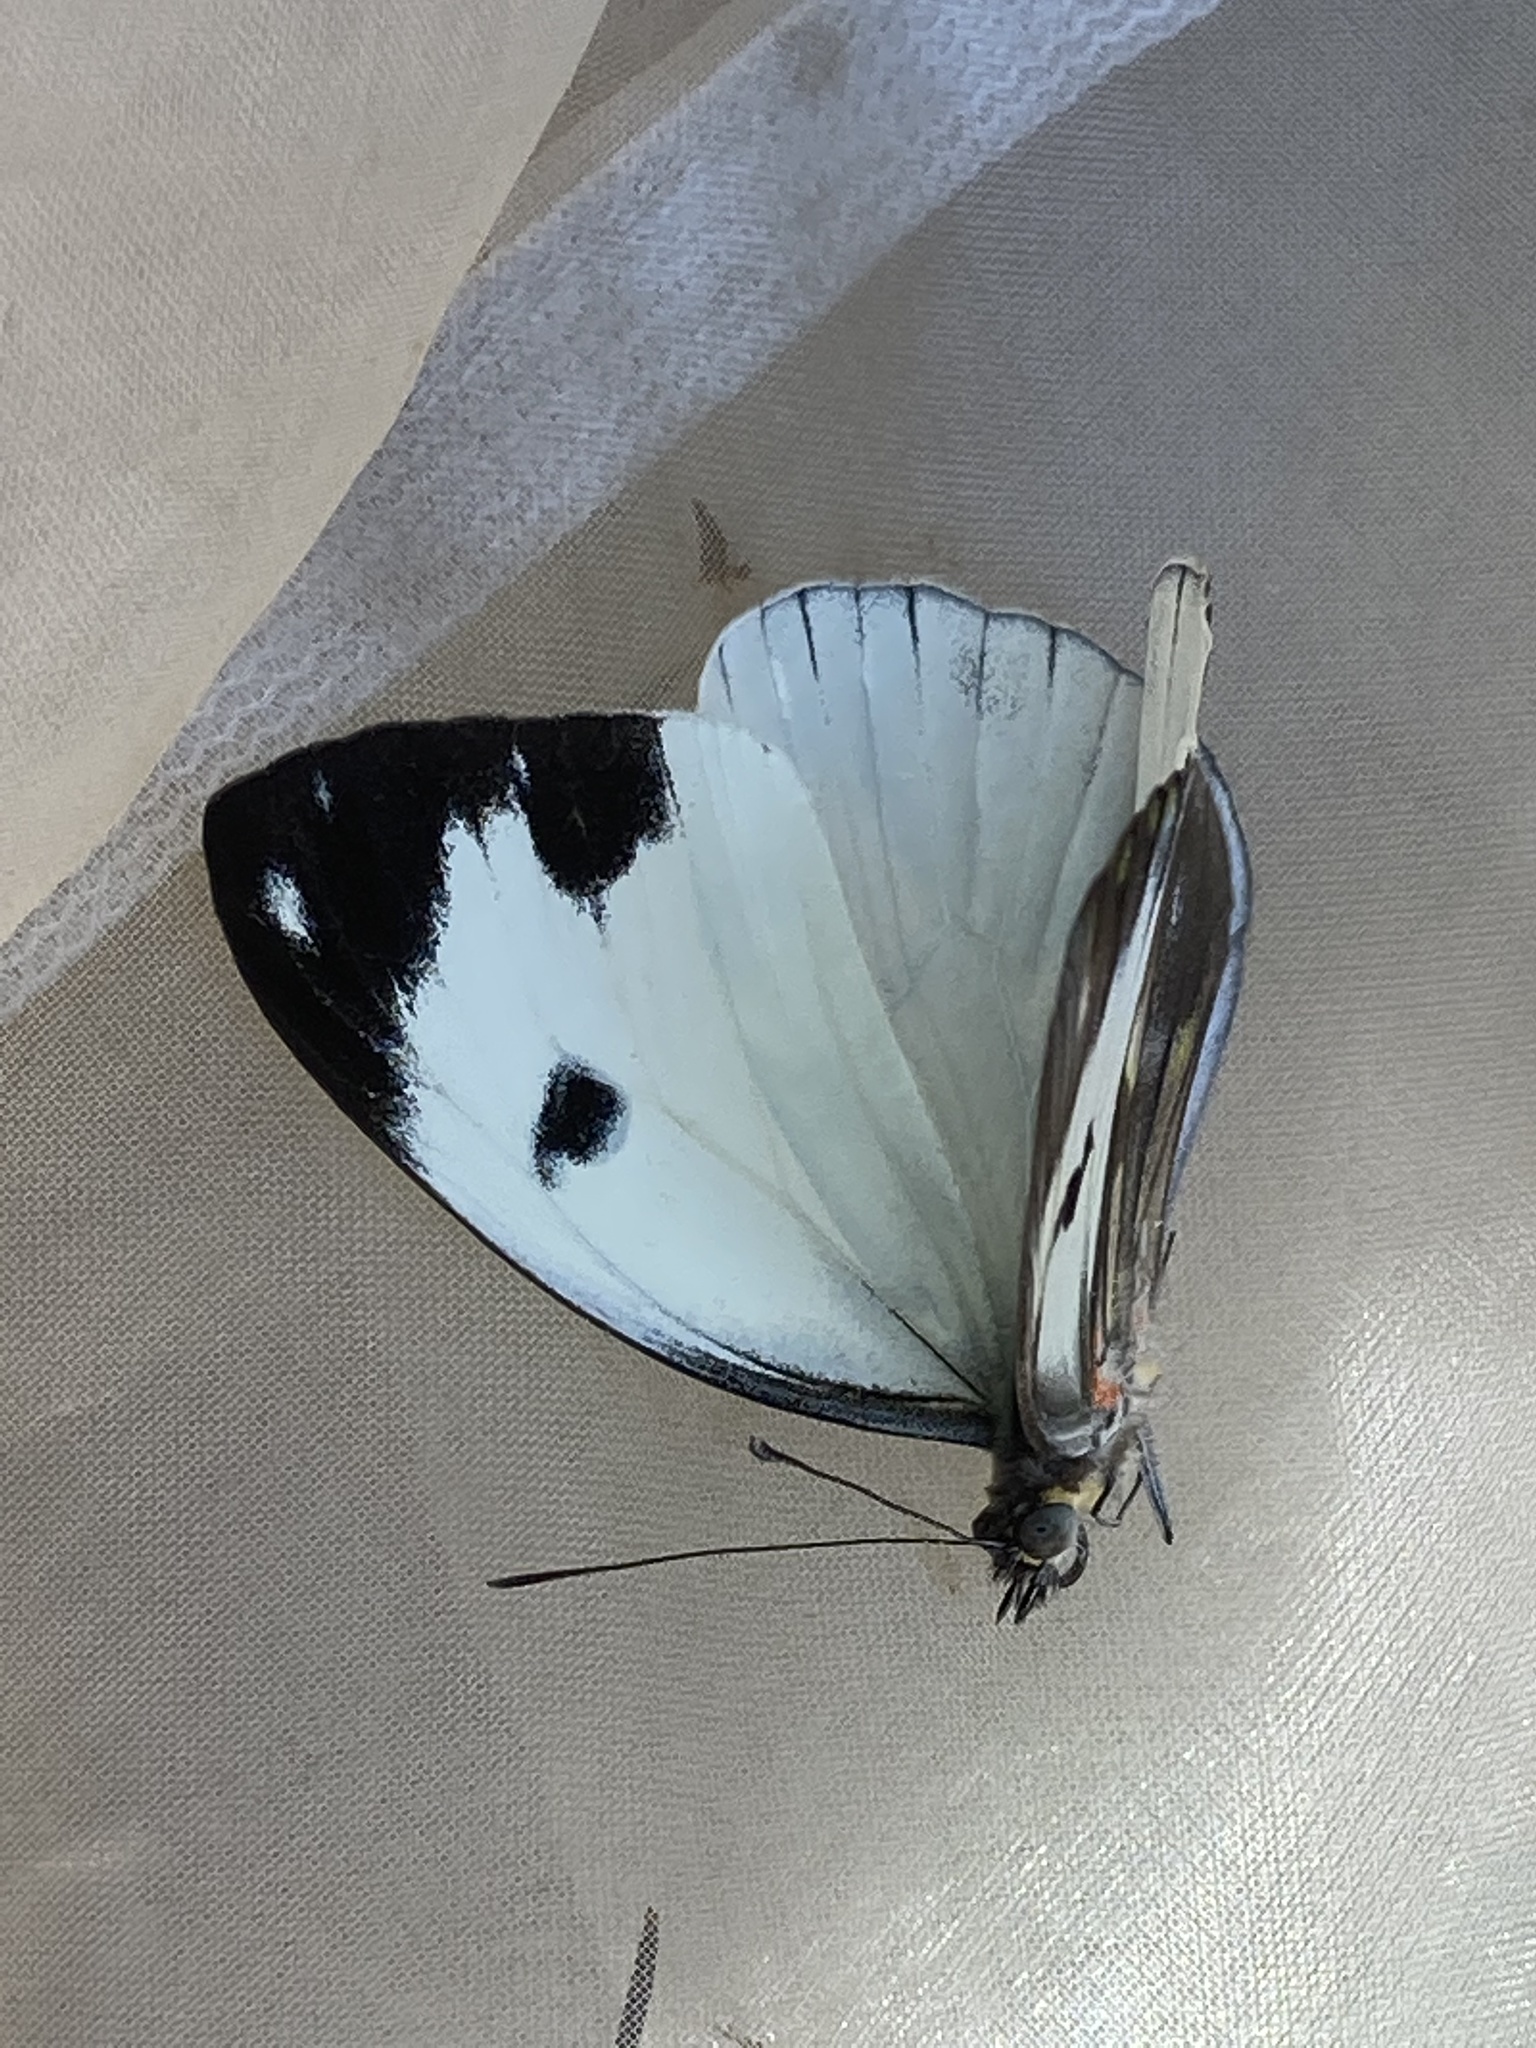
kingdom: Animalia
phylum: Arthropoda
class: Insecta
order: Lepidoptera
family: Pieridae
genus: Pieriballia
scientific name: Pieriballia viardi
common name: Painted white
